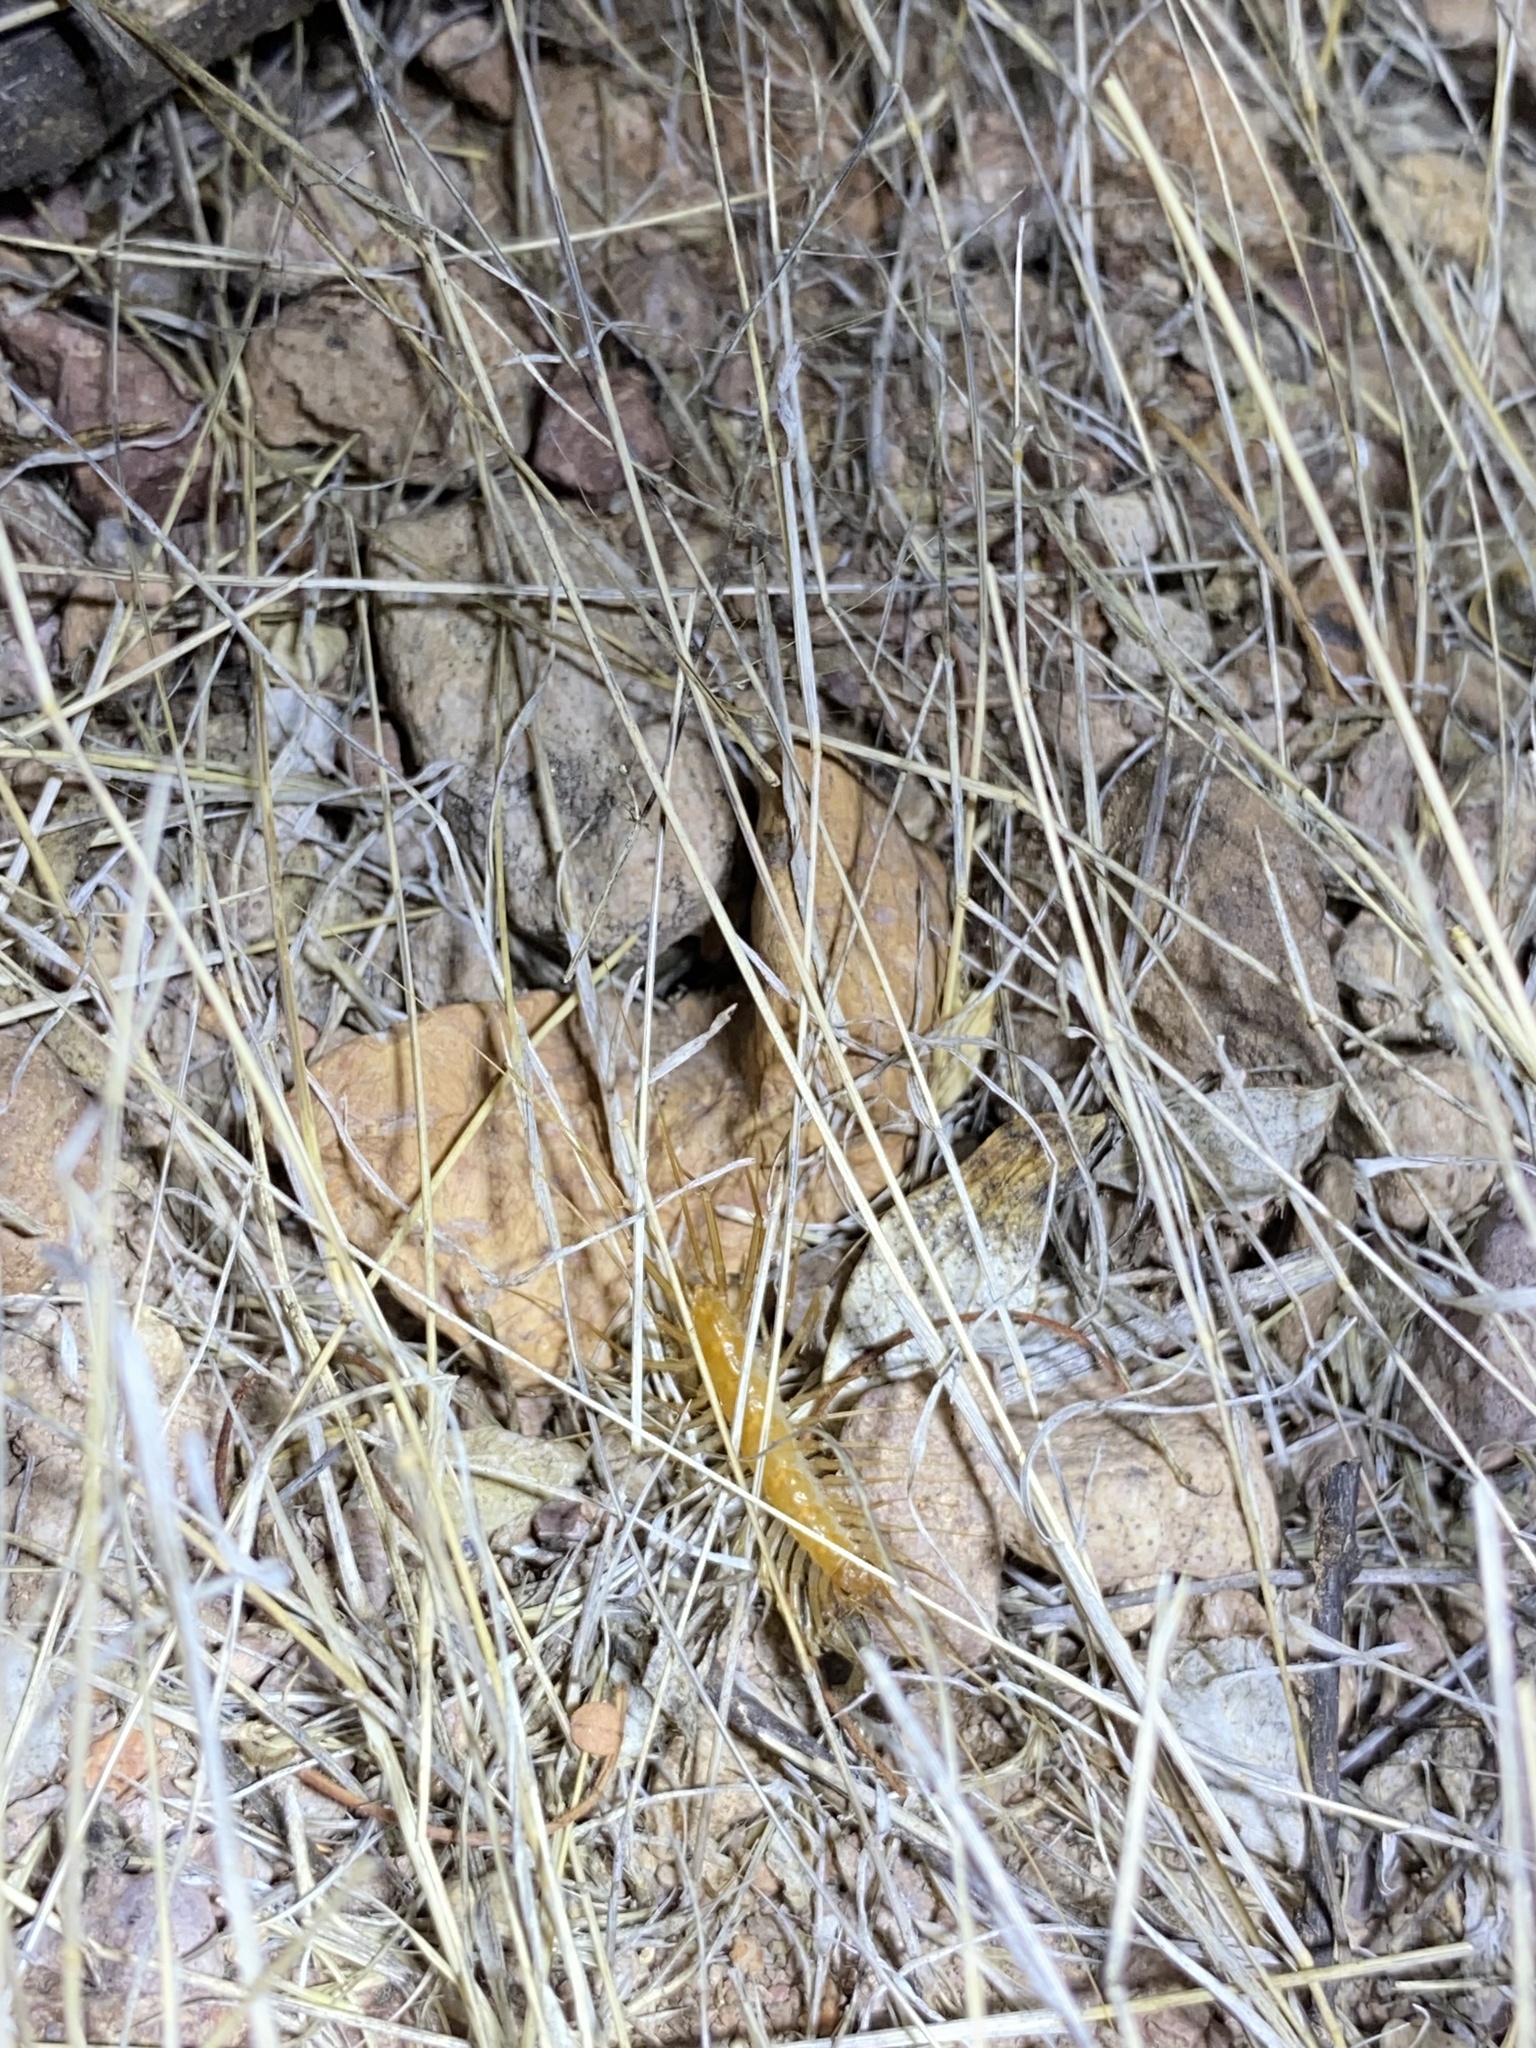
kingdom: Animalia
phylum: Arthropoda
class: Chilopoda
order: Scutigeromorpha
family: Scutigeridae
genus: Scutigera
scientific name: Scutigera linceci
